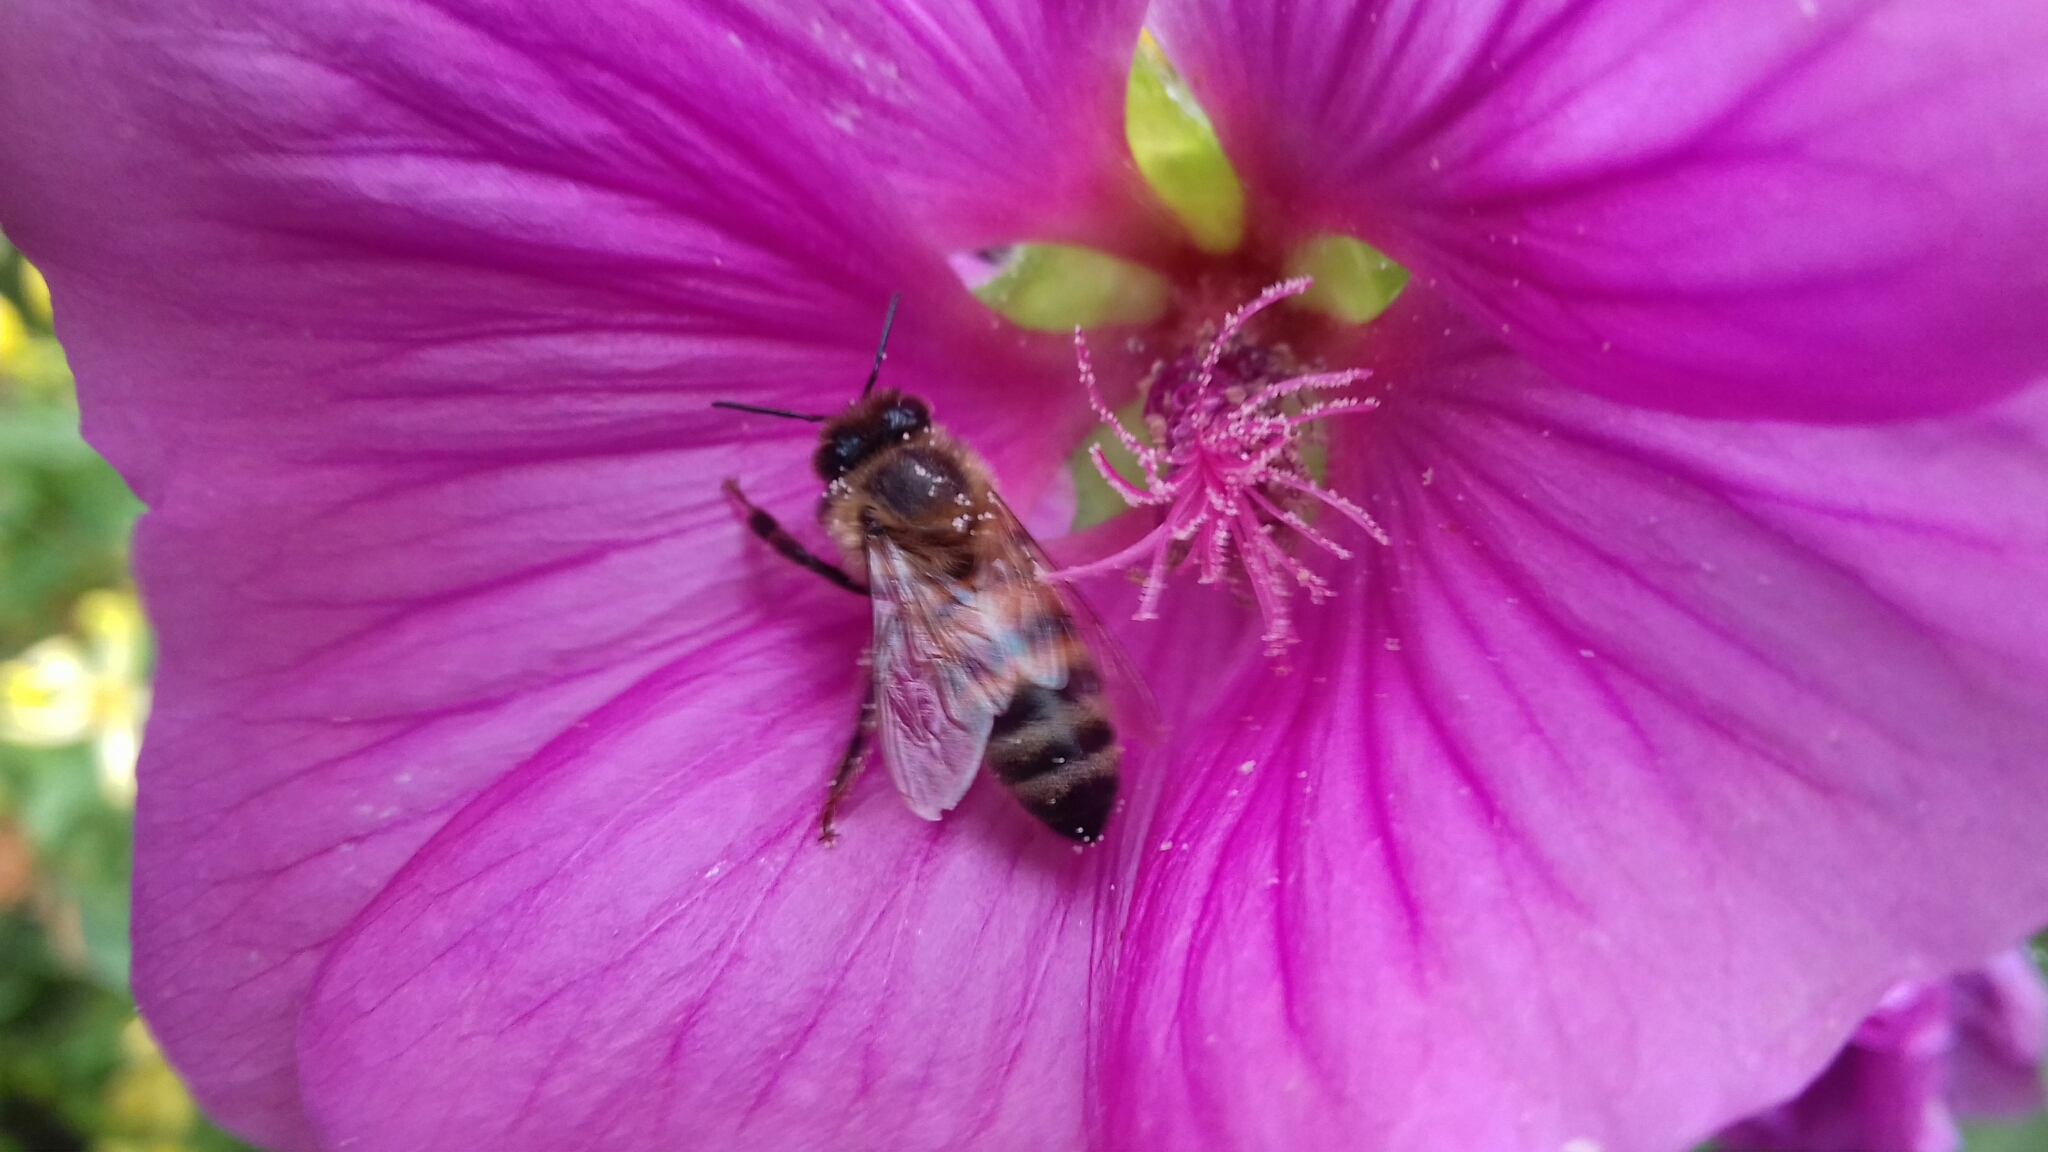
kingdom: Animalia
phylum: Arthropoda
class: Insecta
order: Hymenoptera
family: Apidae
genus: Apis
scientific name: Apis mellifera
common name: Honey bee
